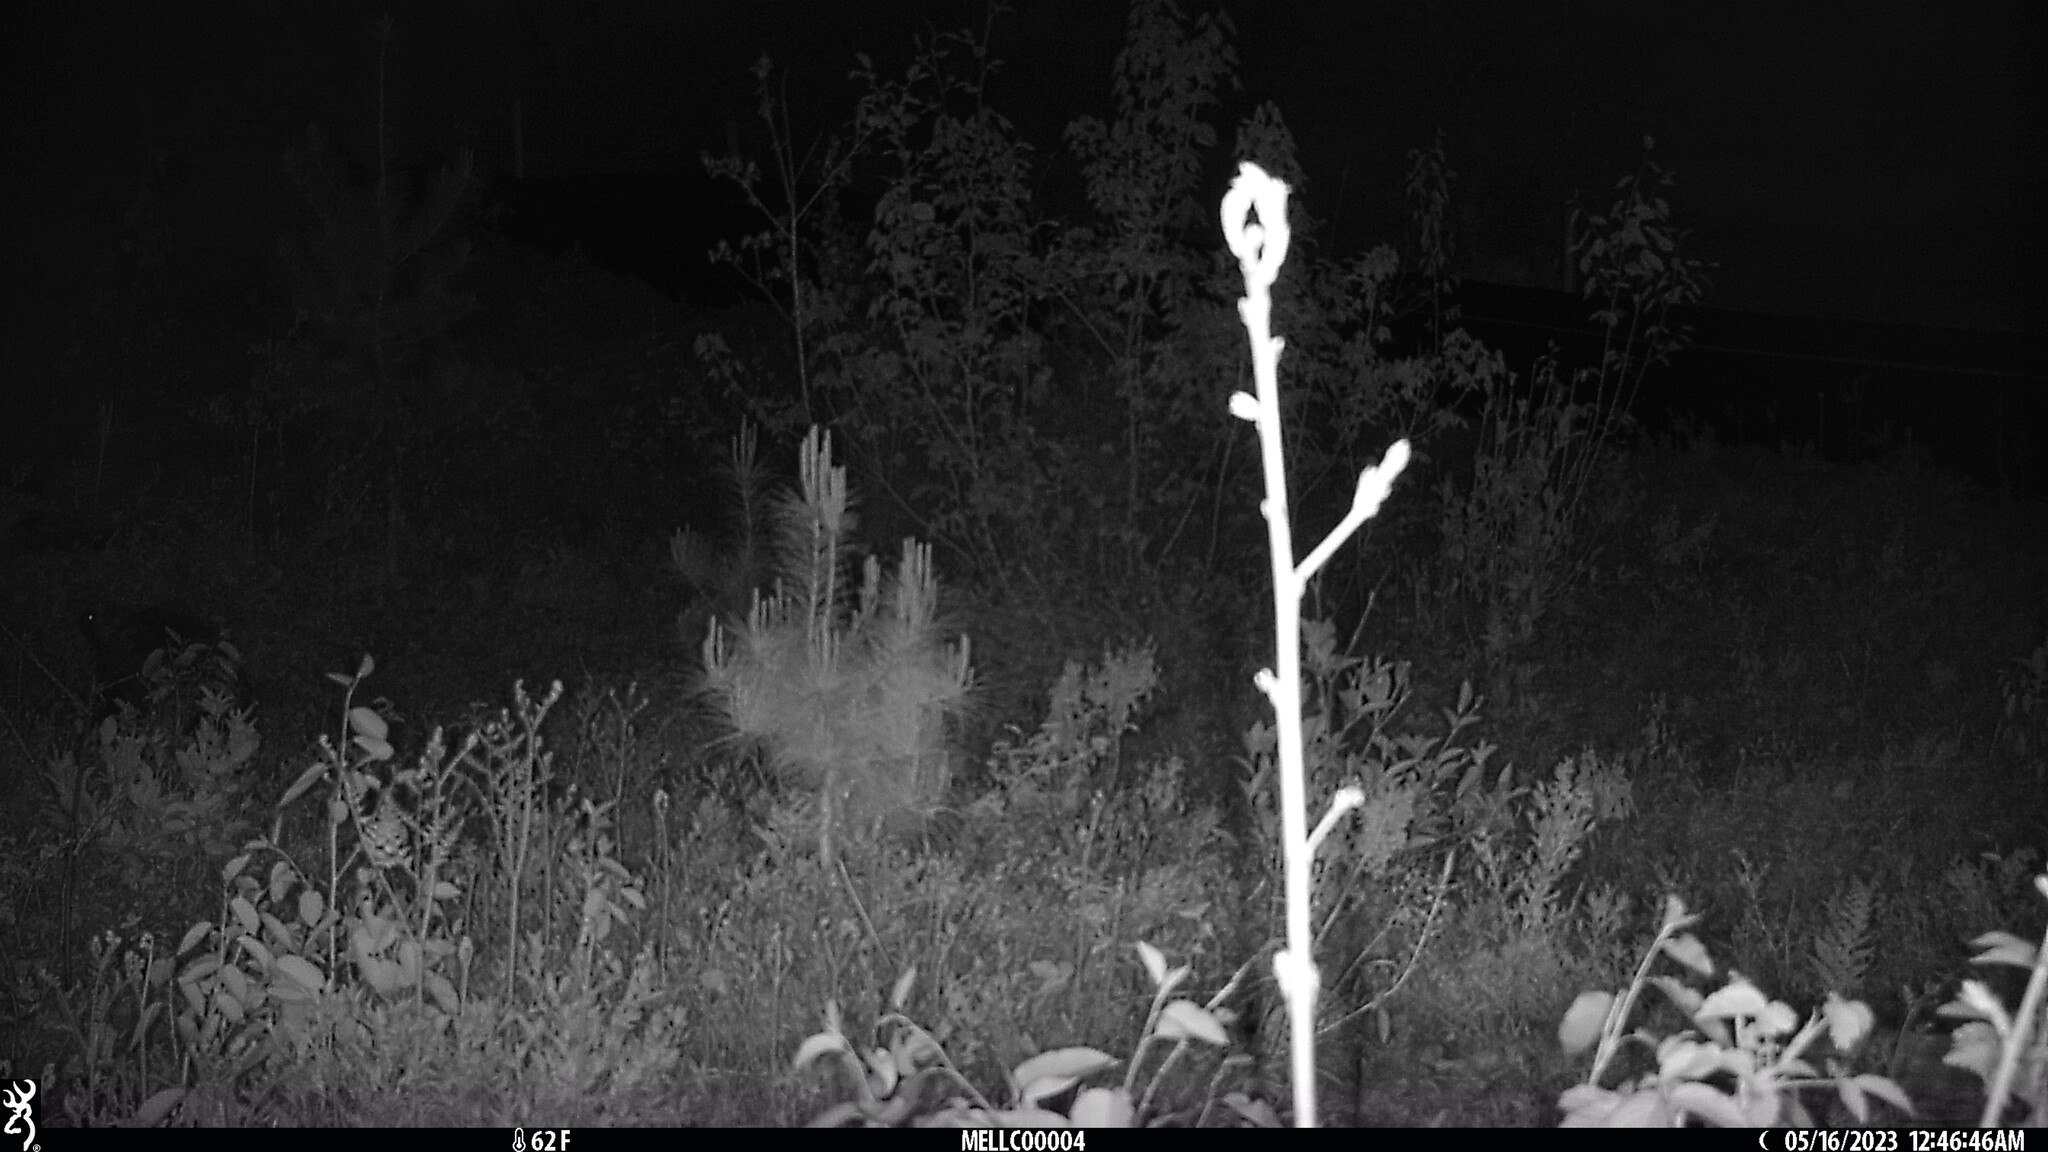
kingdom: Animalia
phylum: Chordata
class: Mammalia
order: Rodentia
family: Erethizontidae
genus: Erethizon
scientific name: Erethizon dorsatus
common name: North american porcupine
